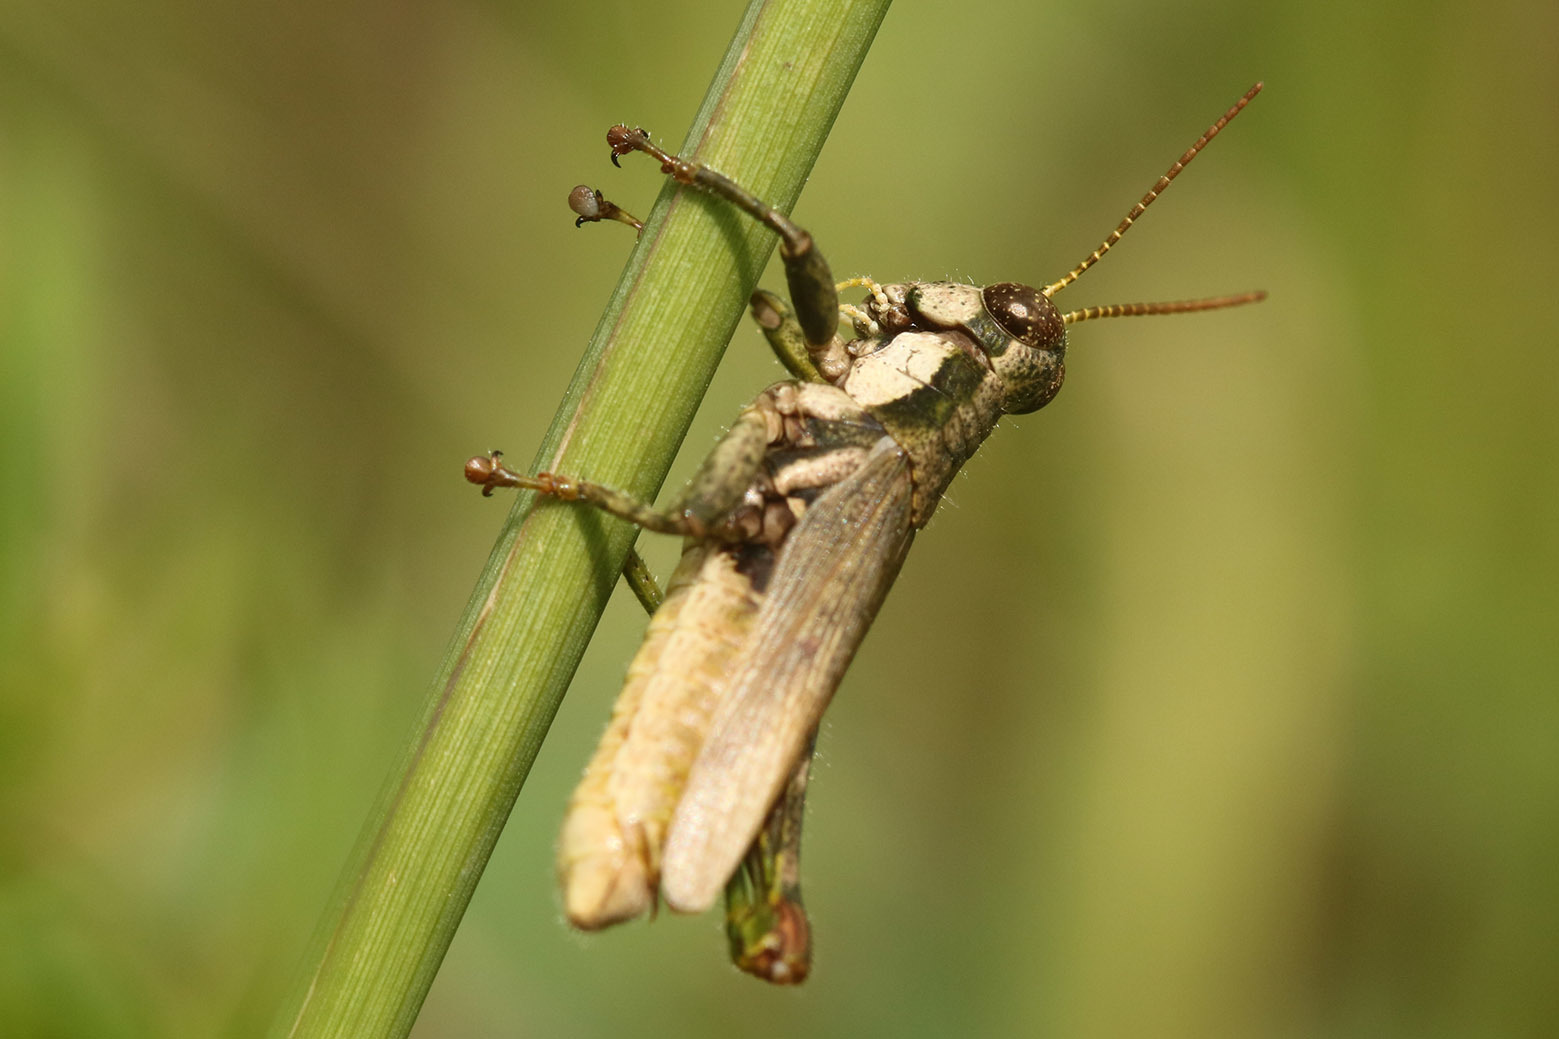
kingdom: Animalia
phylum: Arthropoda
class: Insecta
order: Orthoptera
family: Acrididae
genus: Ronderosia
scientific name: Ronderosia bergii
